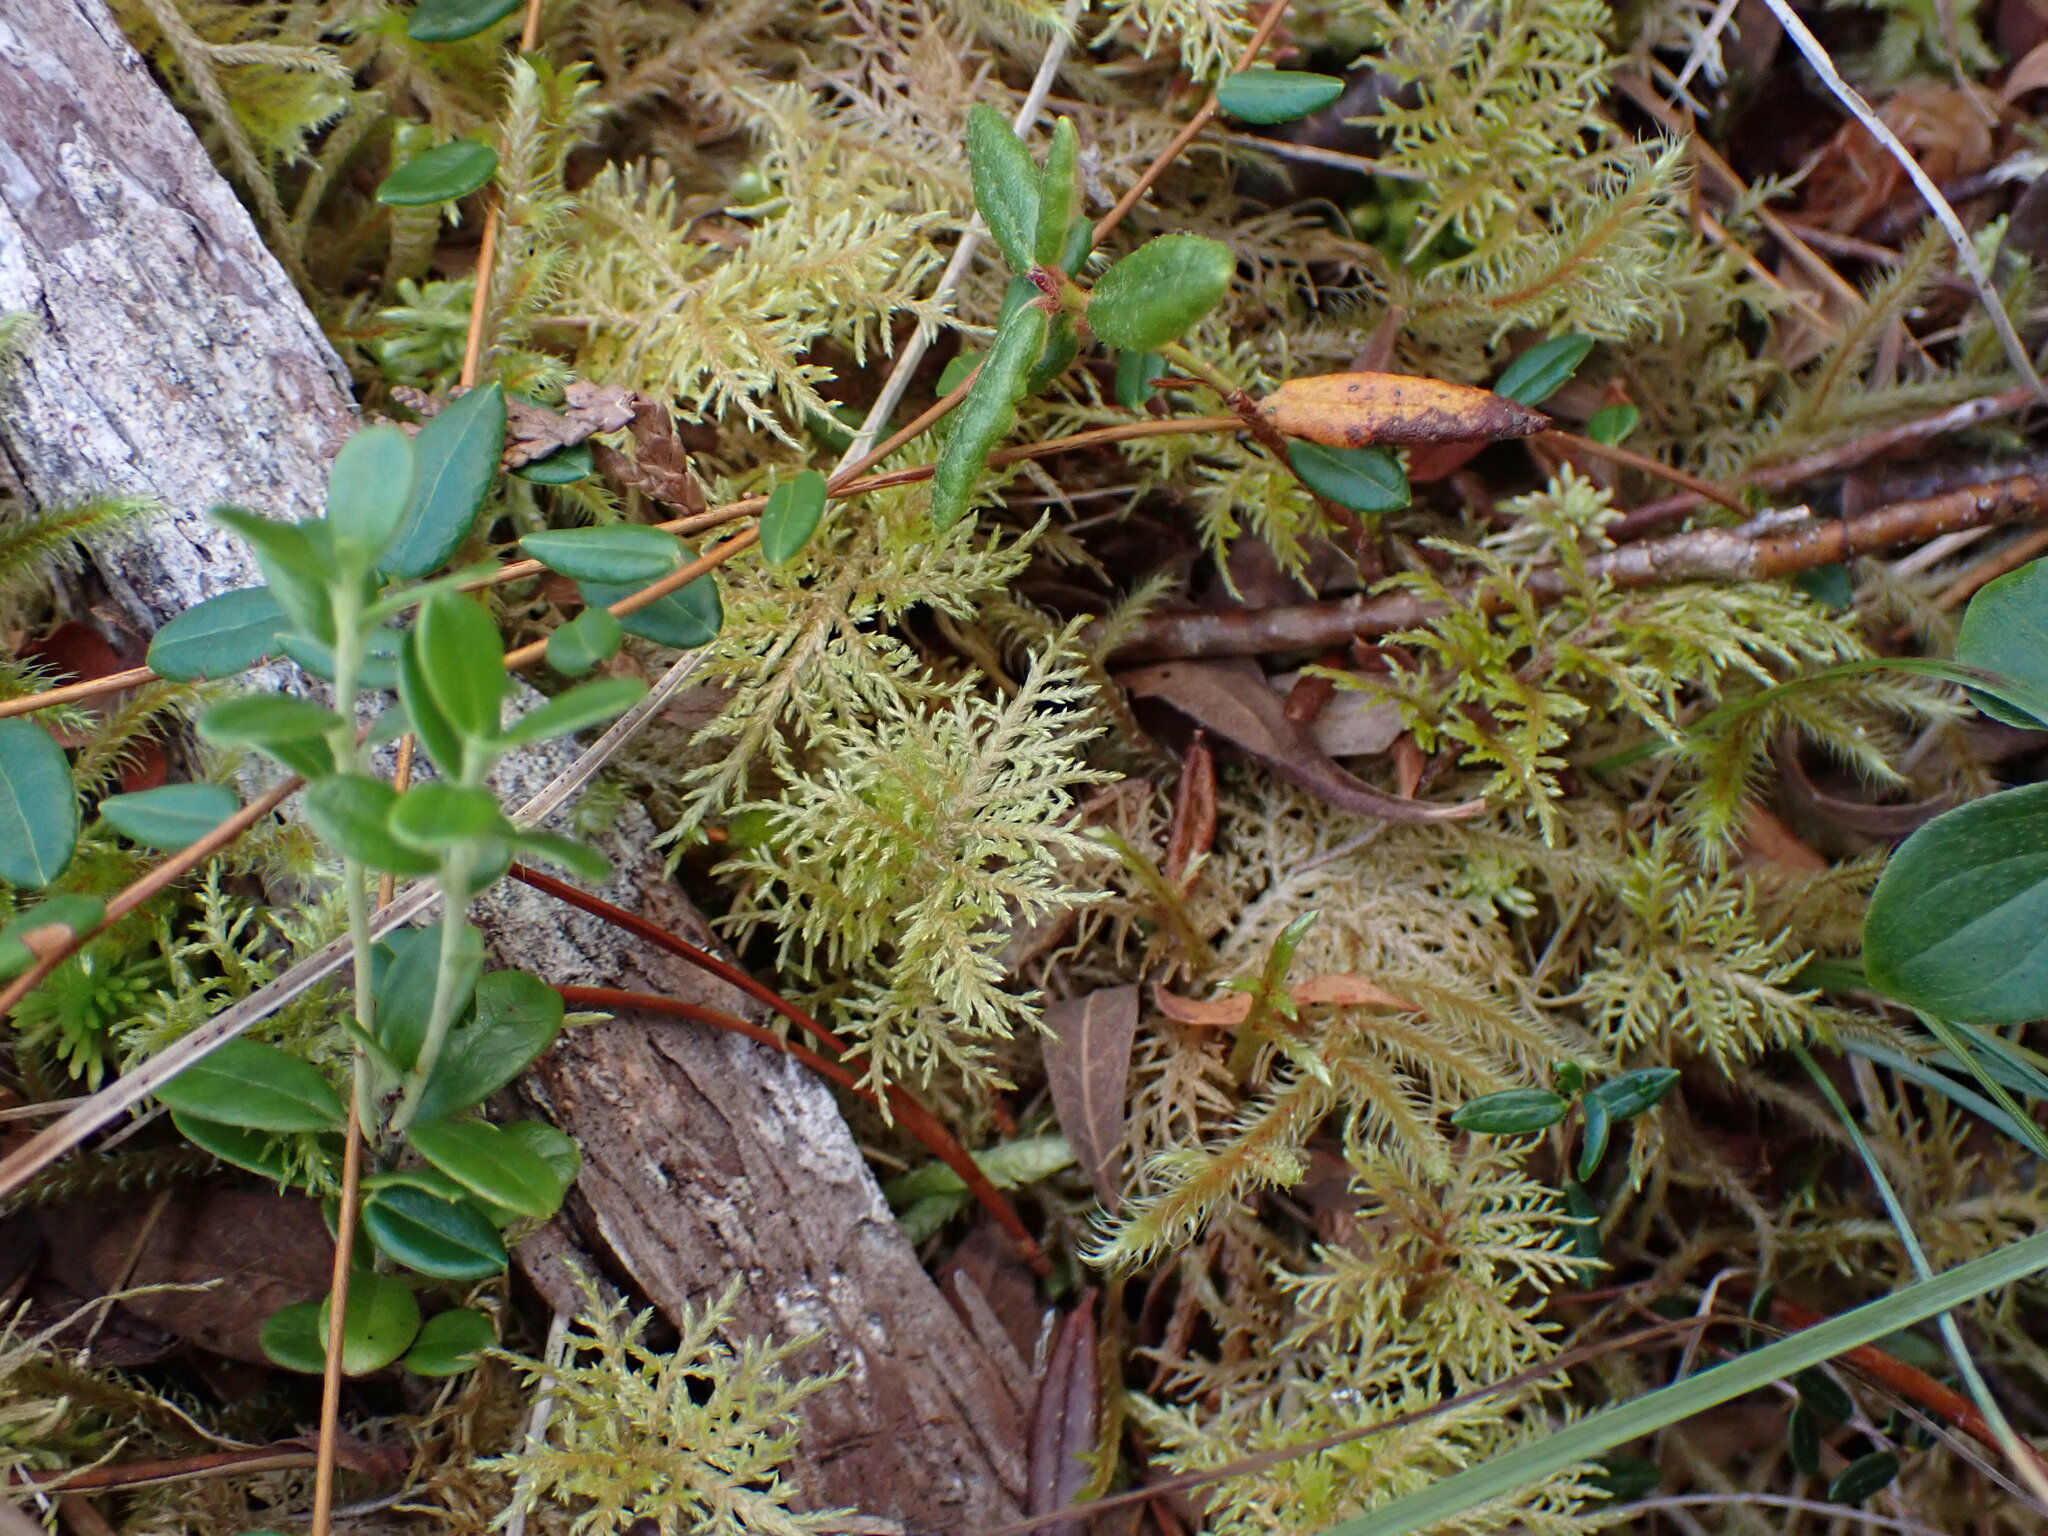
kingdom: Plantae
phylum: Bryophyta
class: Bryopsida
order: Hypnales
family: Hylocomiaceae
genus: Hylocomium
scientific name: Hylocomium splendens
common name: Stairstep moss
